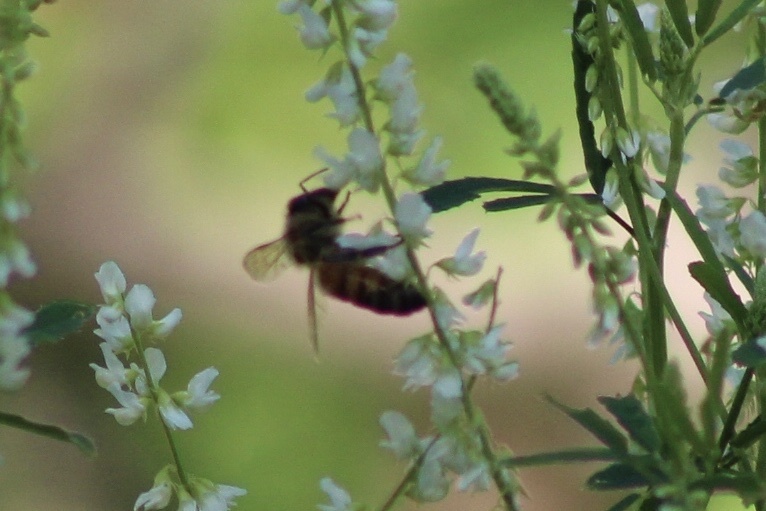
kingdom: Animalia
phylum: Arthropoda
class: Insecta
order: Hymenoptera
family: Apidae
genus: Apis
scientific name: Apis mellifera
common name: Honey bee
